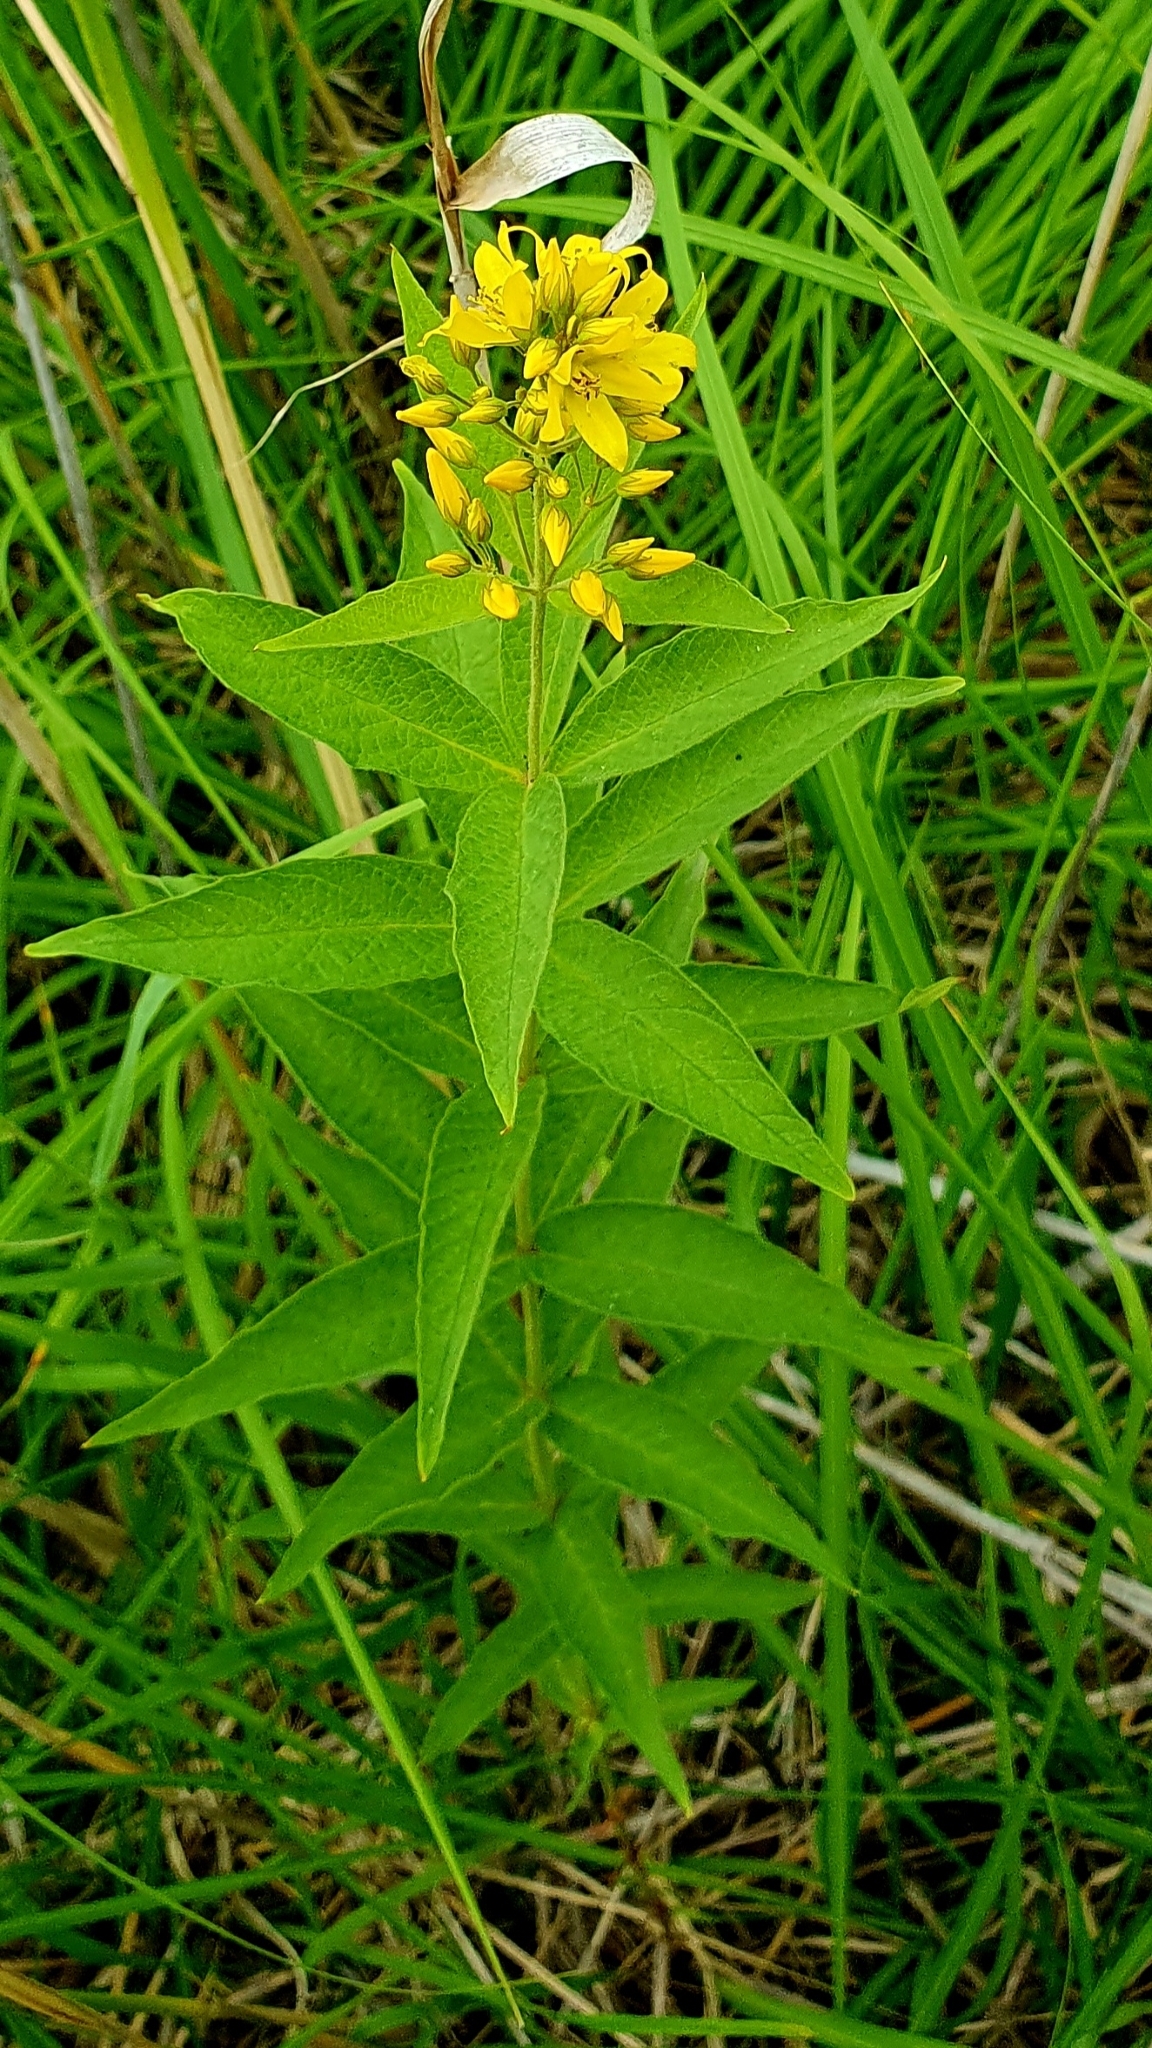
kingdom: Plantae
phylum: Tracheophyta
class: Magnoliopsida
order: Ericales
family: Primulaceae
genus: Lysimachia
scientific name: Lysimachia vulgaris
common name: Yellow loosestrife
